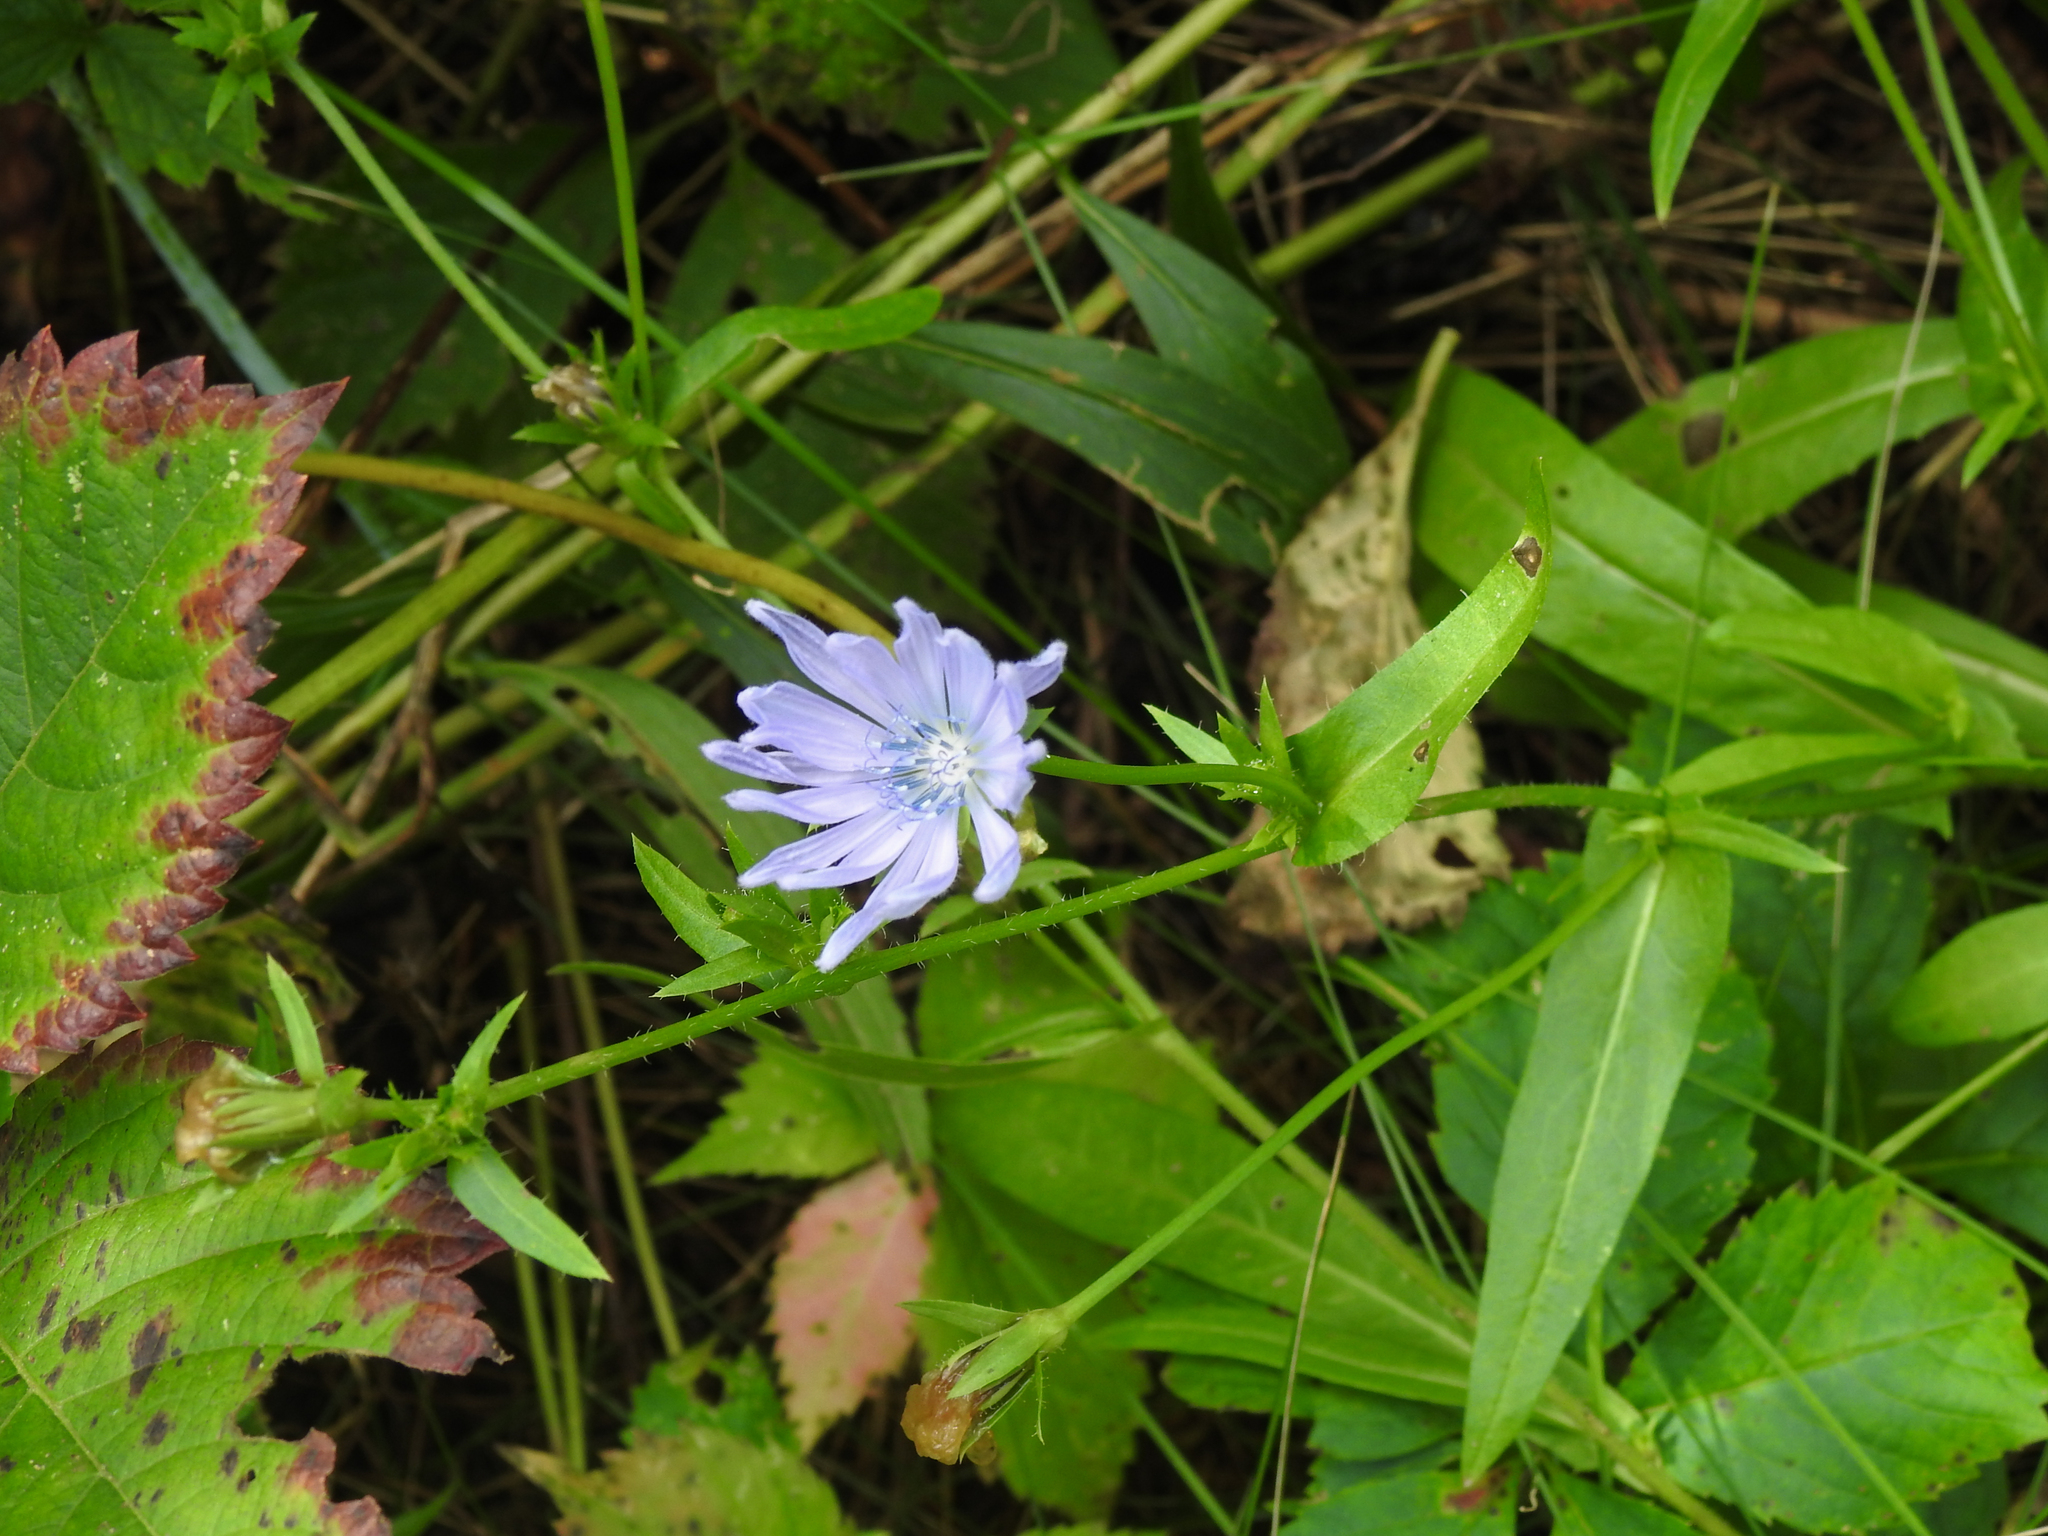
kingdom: Plantae
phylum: Tracheophyta
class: Magnoliopsida
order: Asterales
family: Asteraceae
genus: Cichorium
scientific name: Cichorium intybus
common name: Chicory
